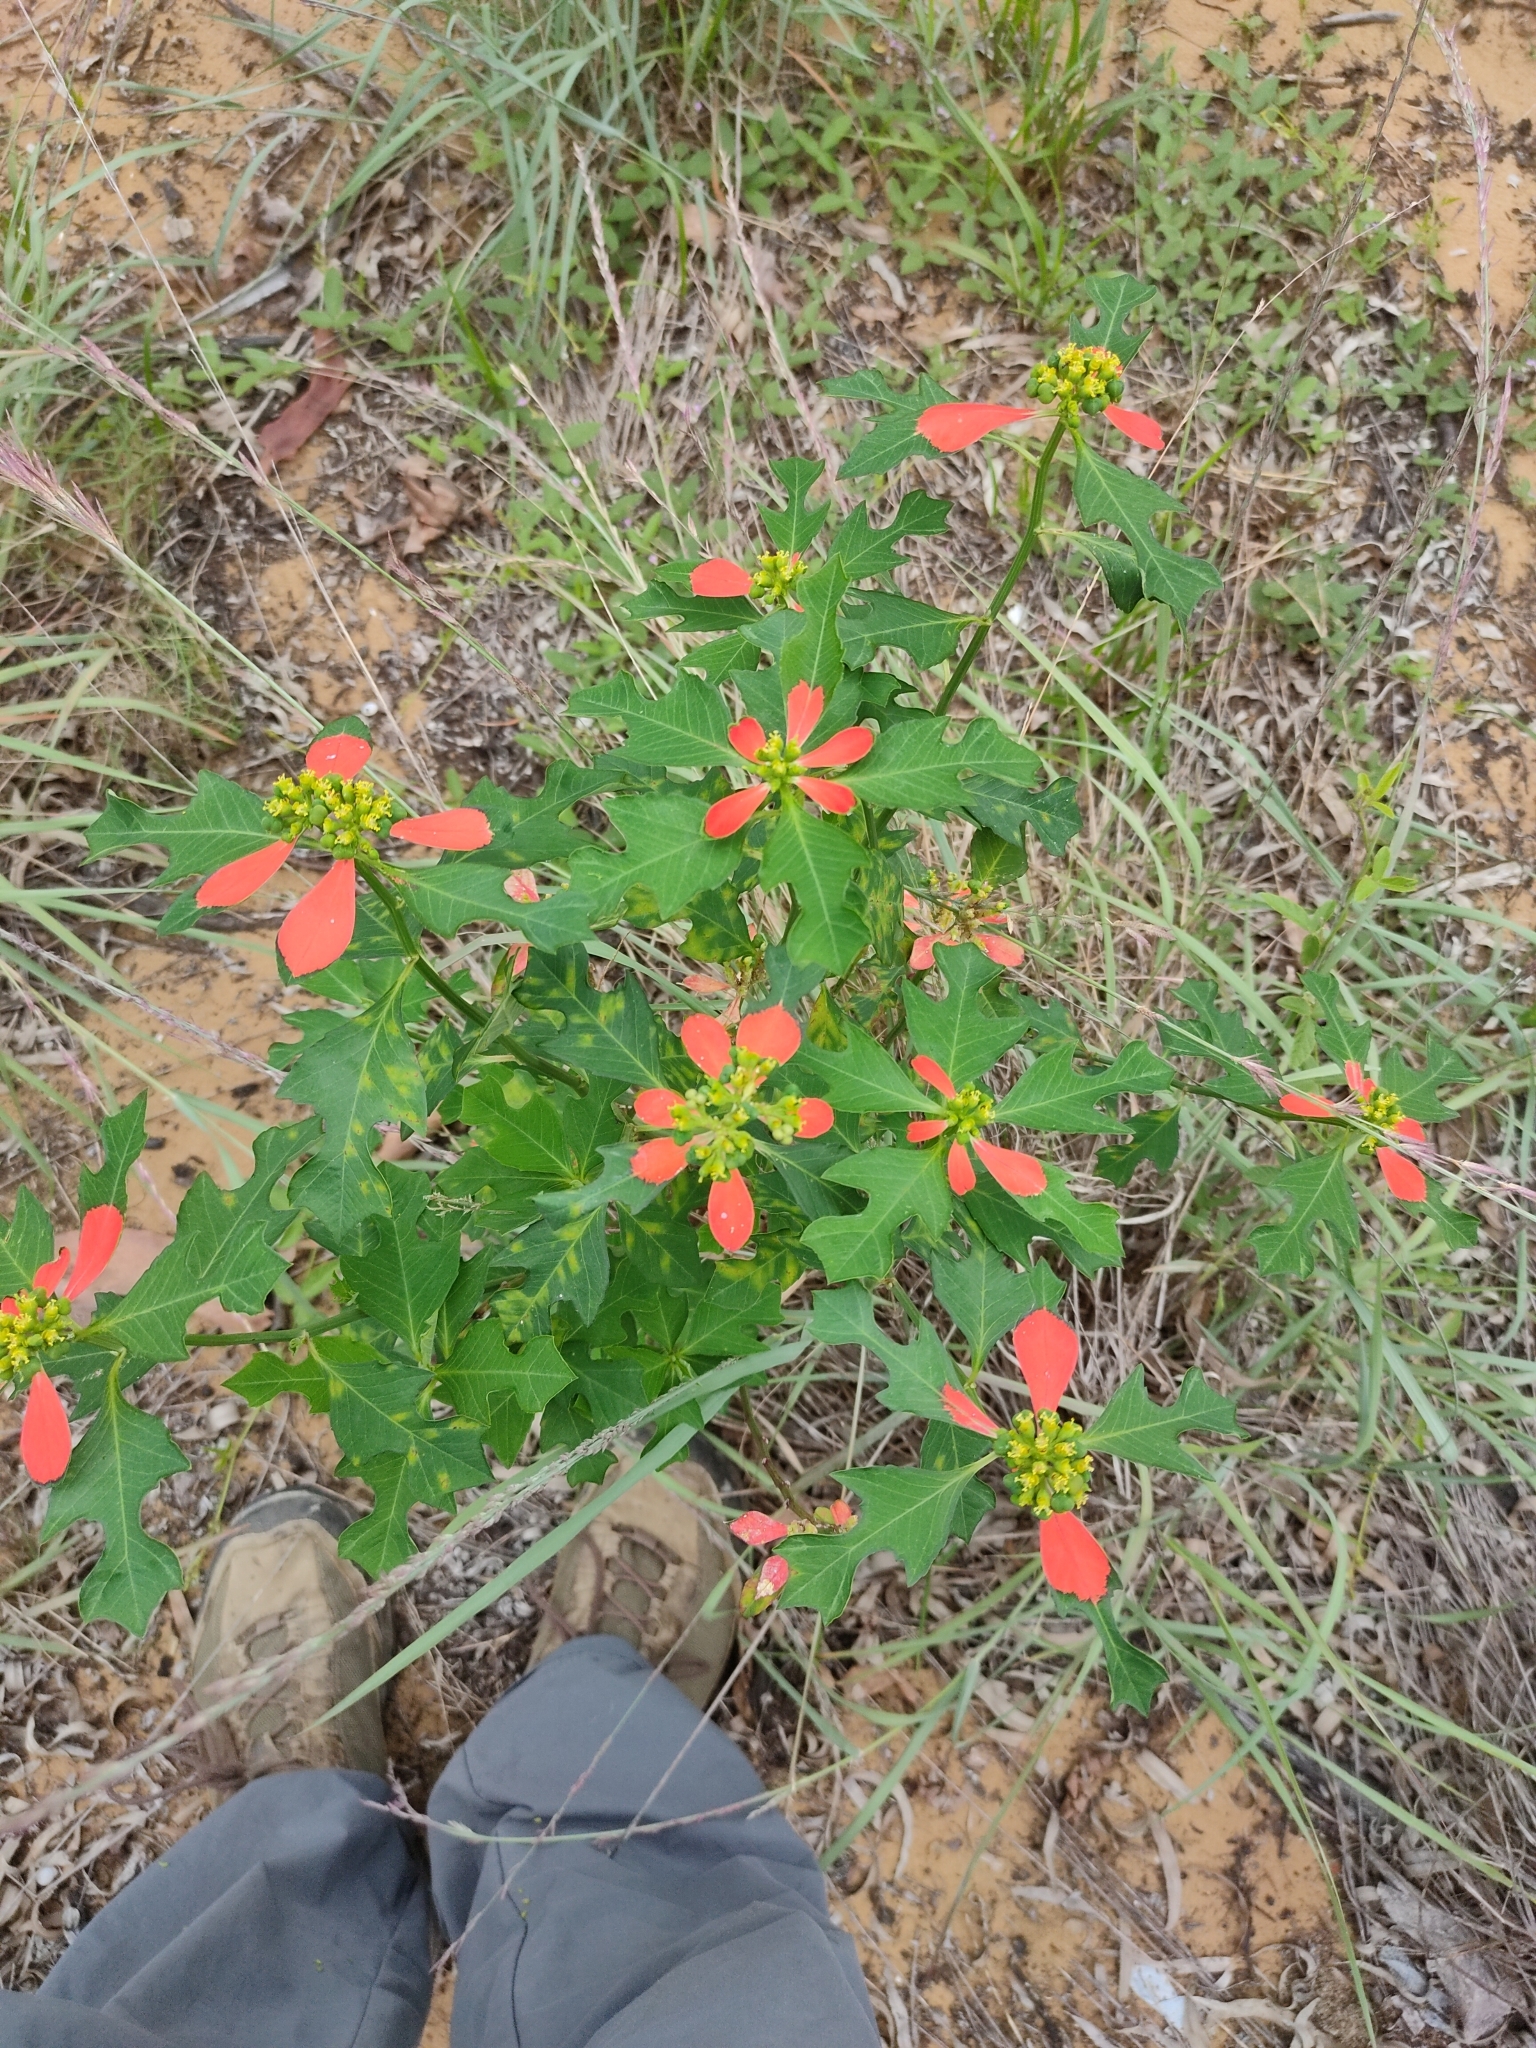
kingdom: Plantae
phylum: Tracheophyta
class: Magnoliopsida
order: Malpighiales
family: Euphorbiaceae
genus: Euphorbia
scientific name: Euphorbia heterophylla
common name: Mexican fireplant
